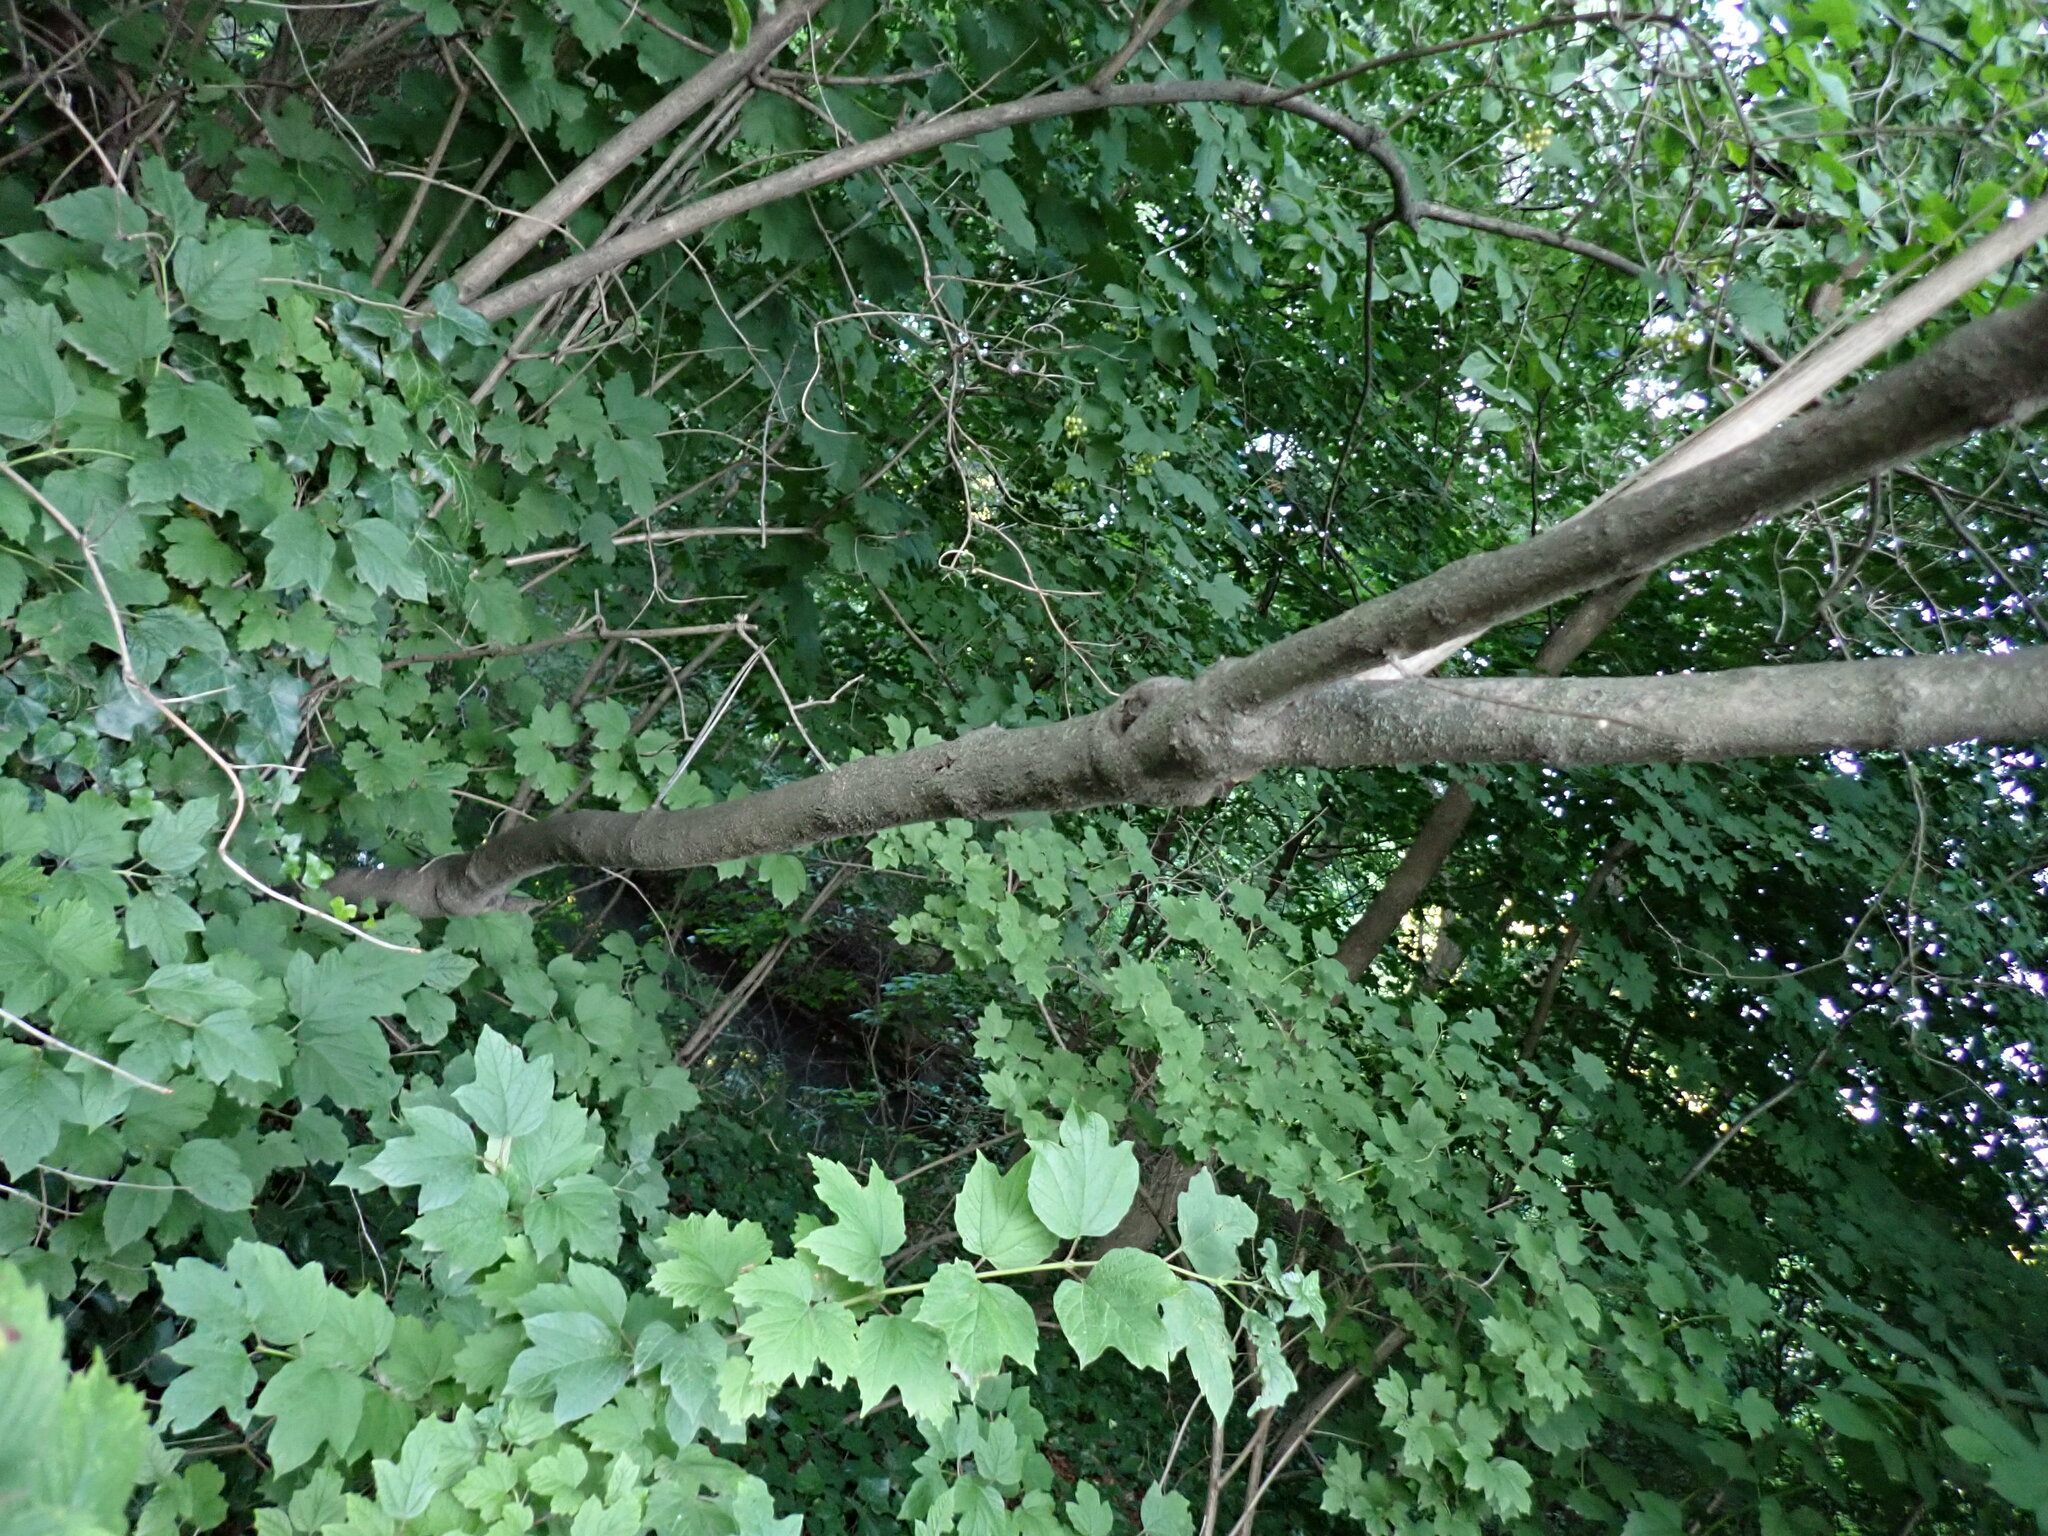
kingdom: Plantae
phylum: Tracheophyta
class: Magnoliopsida
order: Dipsacales
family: Viburnaceae
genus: Viburnum
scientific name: Viburnum opulus
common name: Guelder-rose
